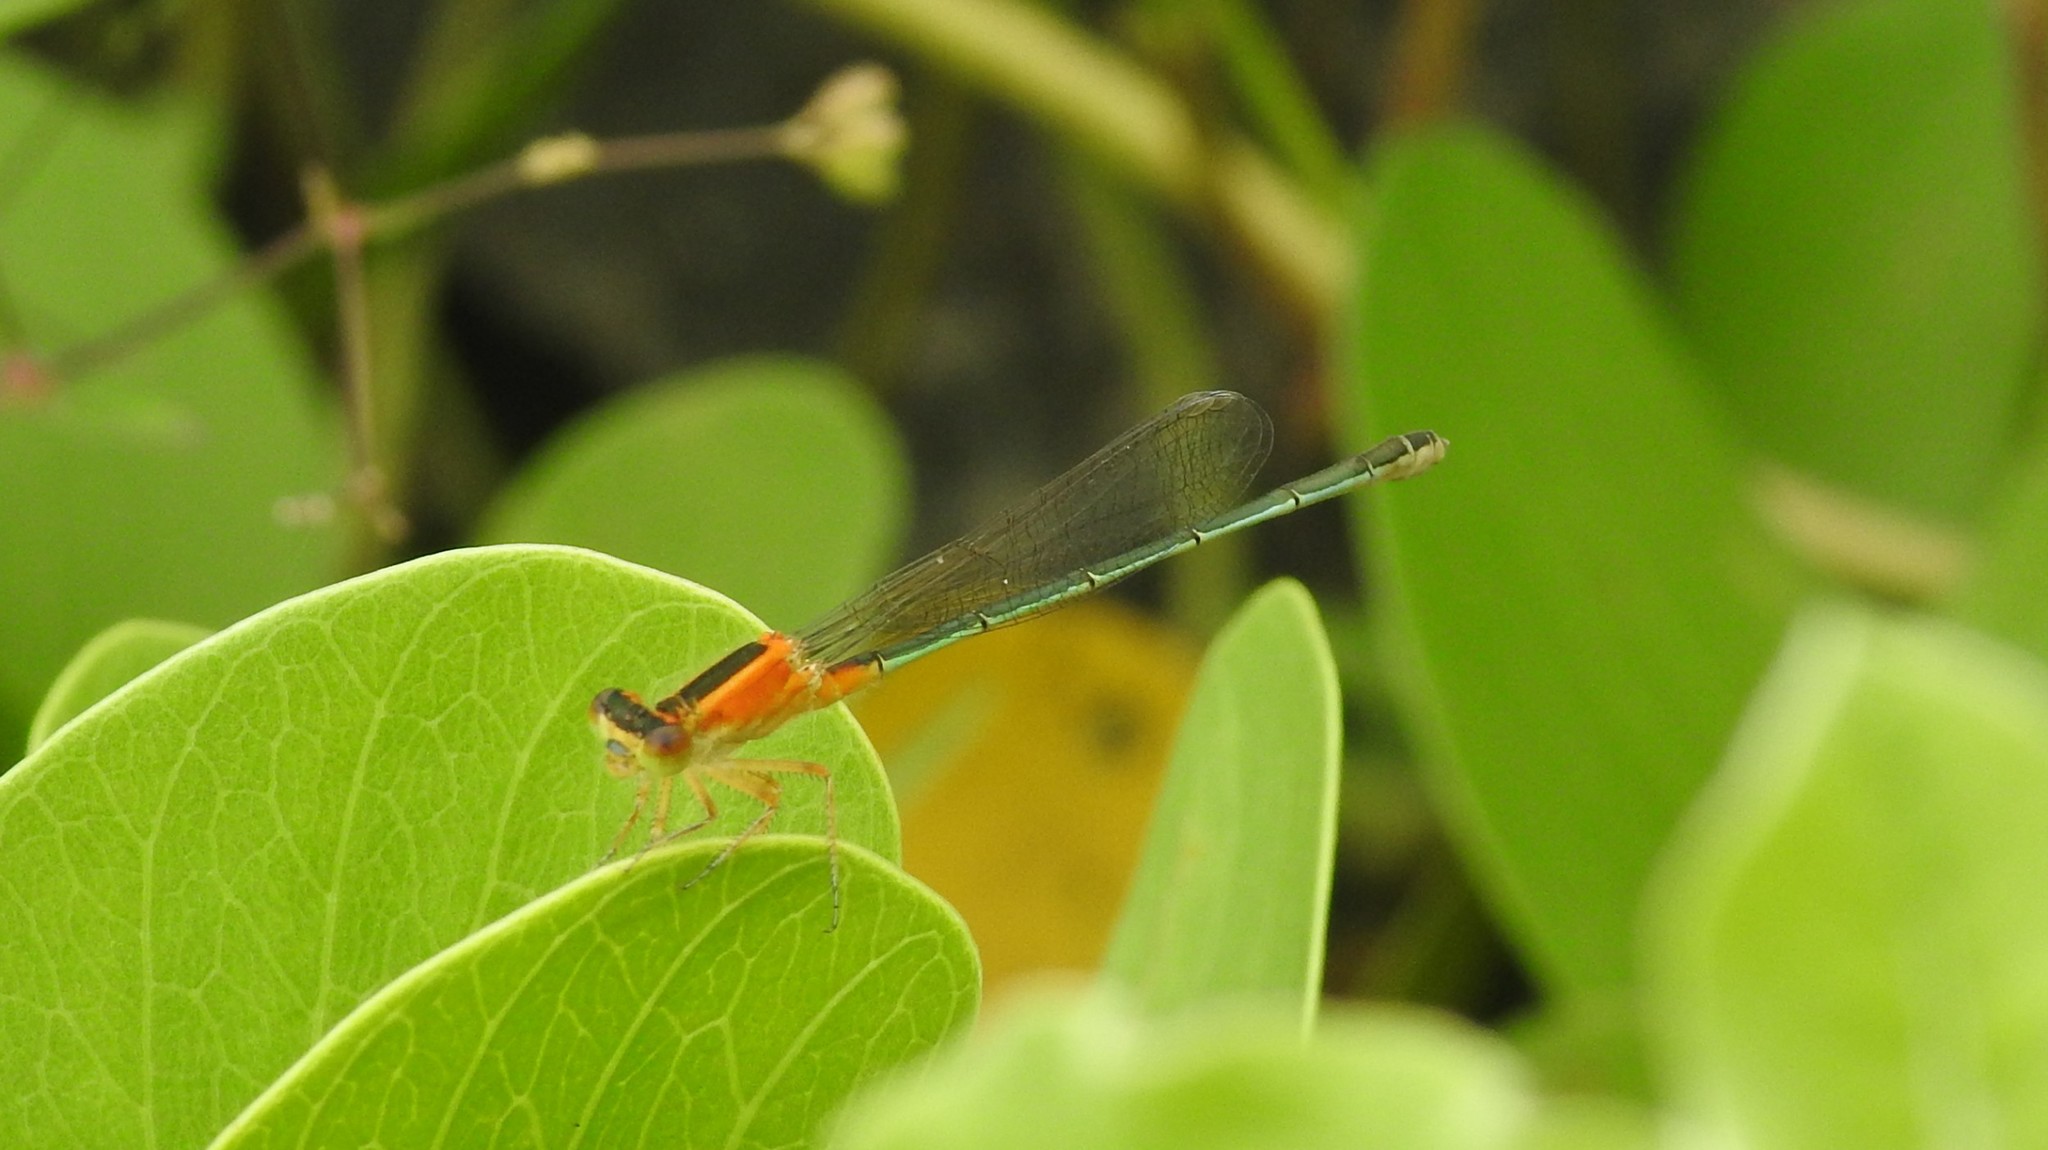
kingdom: Animalia
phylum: Arthropoda
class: Insecta
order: Odonata
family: Coenagrionidae
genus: Ischnura
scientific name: Ischnura senegalensis
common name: Tropical bluetail
